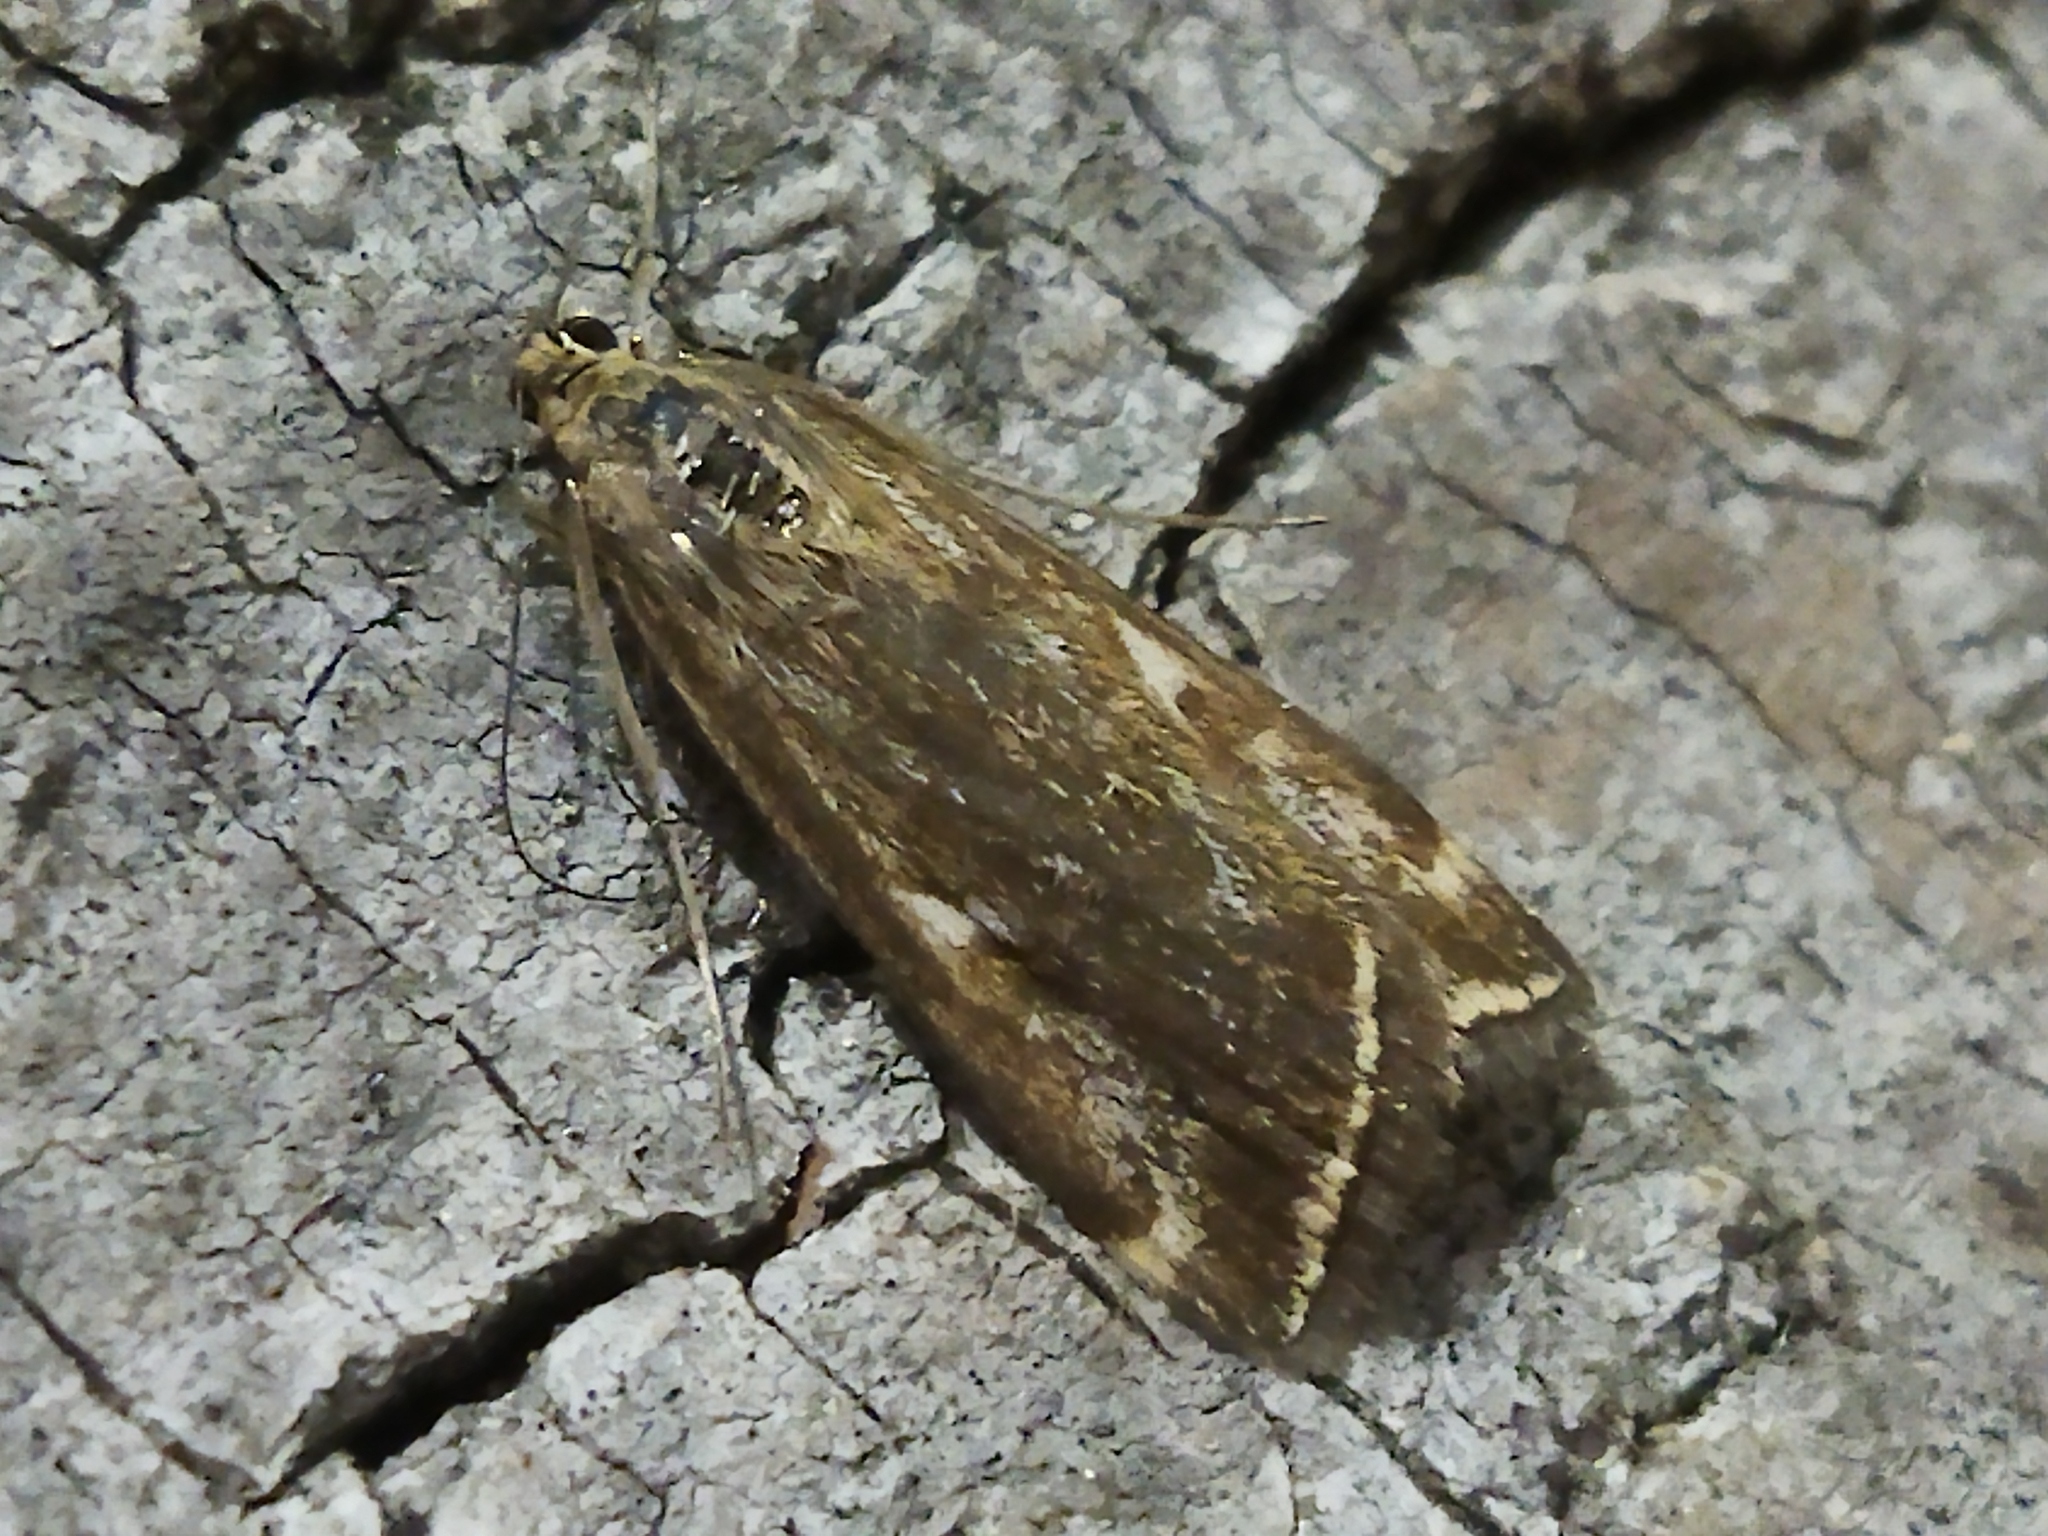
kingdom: Animalia
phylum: Arthropoda
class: Insecta
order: Lepidoptera
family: Crambidae
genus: Loxostege
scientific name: Loxostege sticticalis
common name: Crambid moth
